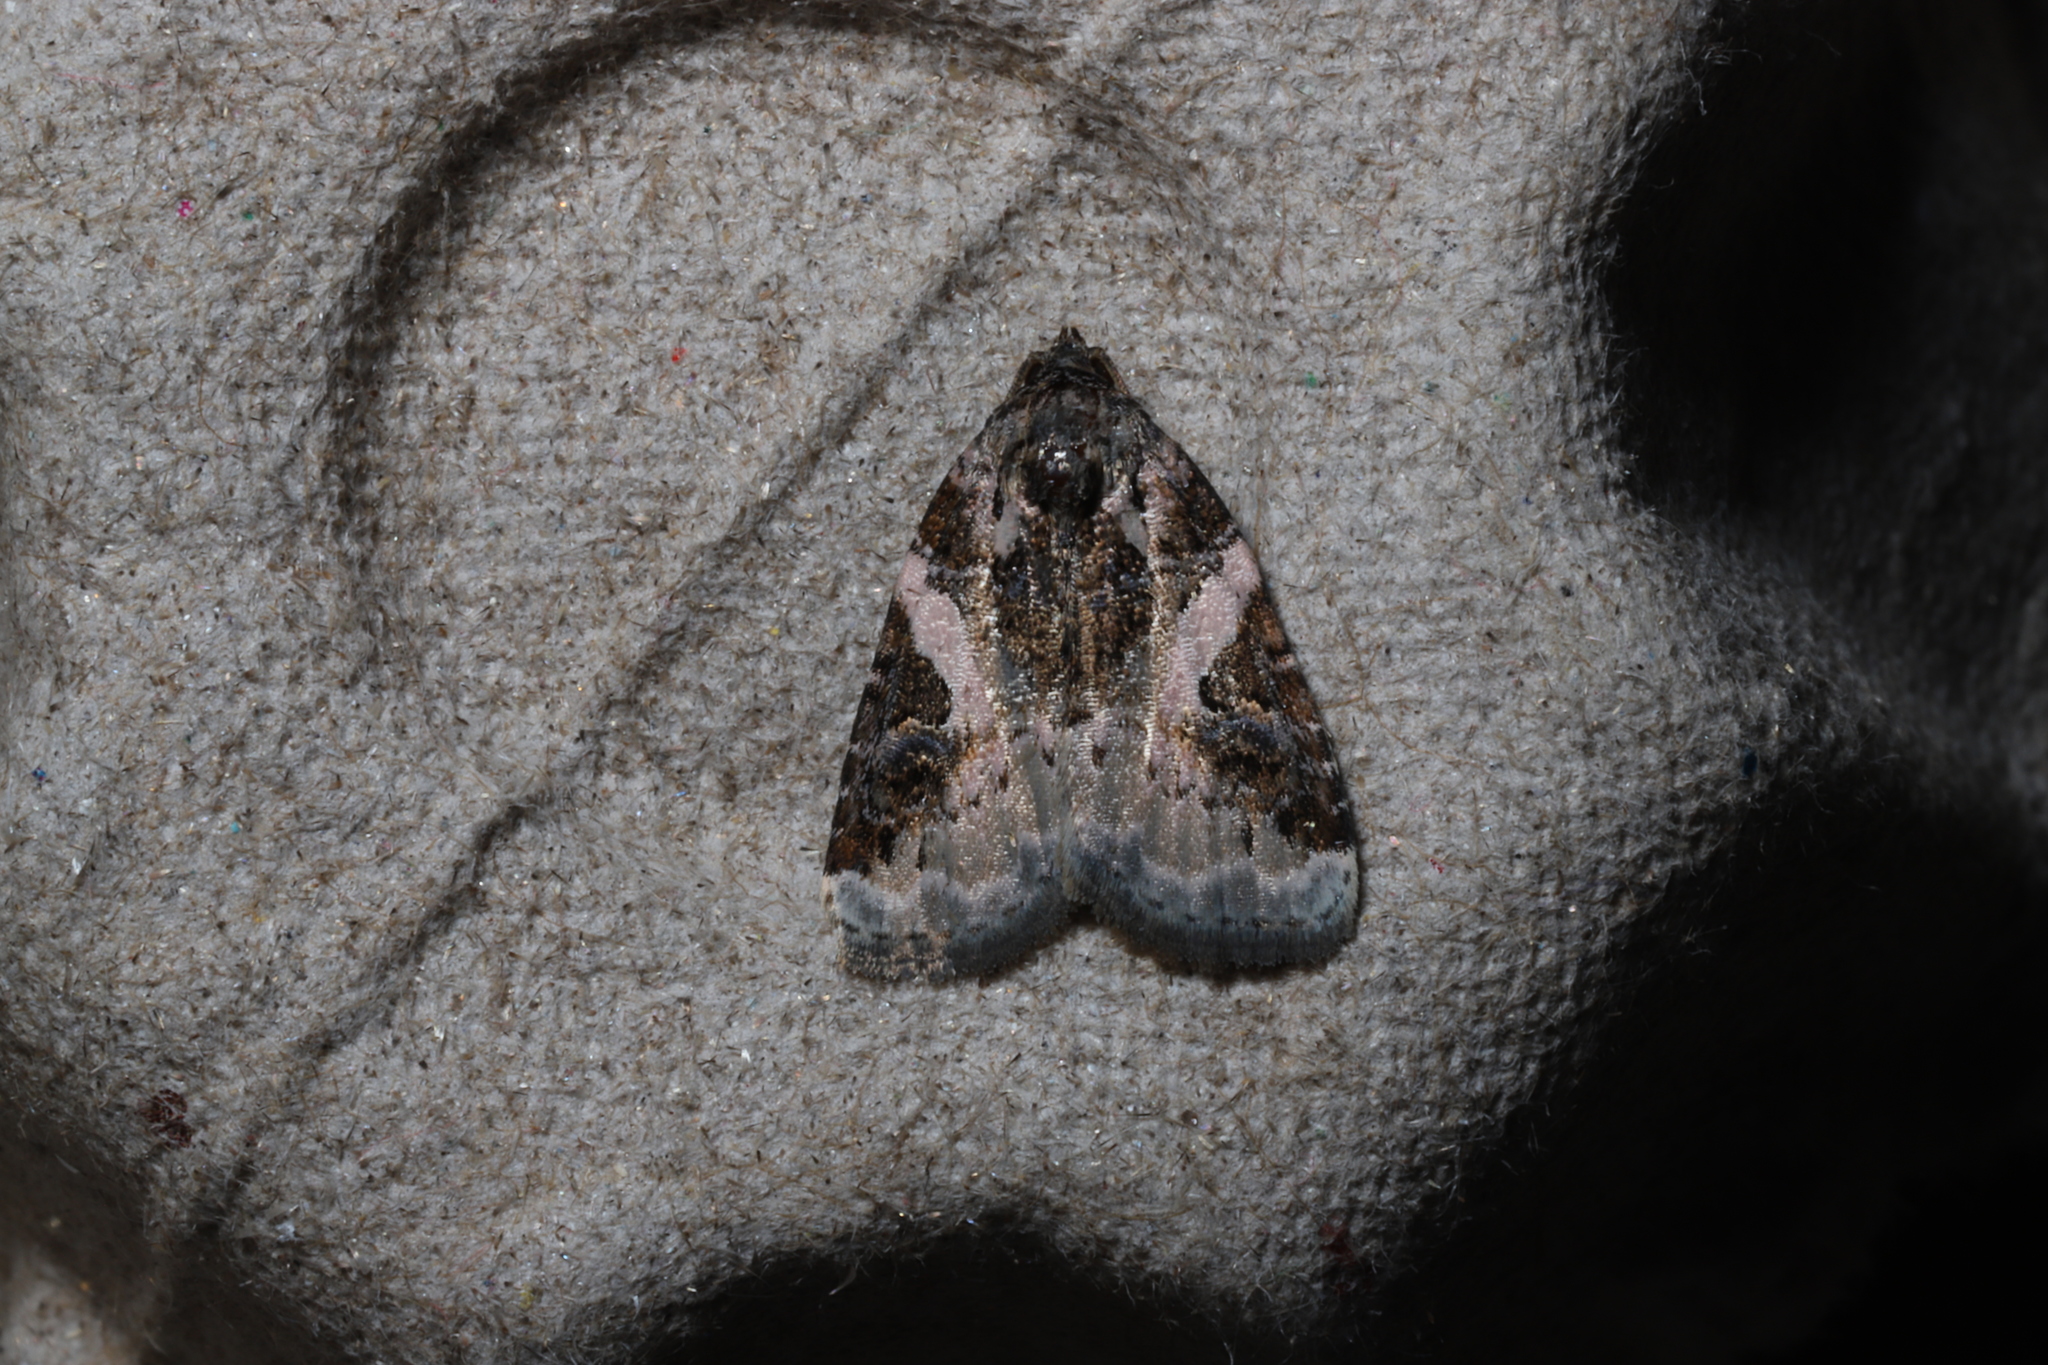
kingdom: Animalia
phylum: Arthropoda
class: Insecta
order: Lepidoptera
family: Noctuidae
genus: Pseudeustrotia
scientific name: Pseudeustrotia carneola
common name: Pink-barred lithacodia moth
